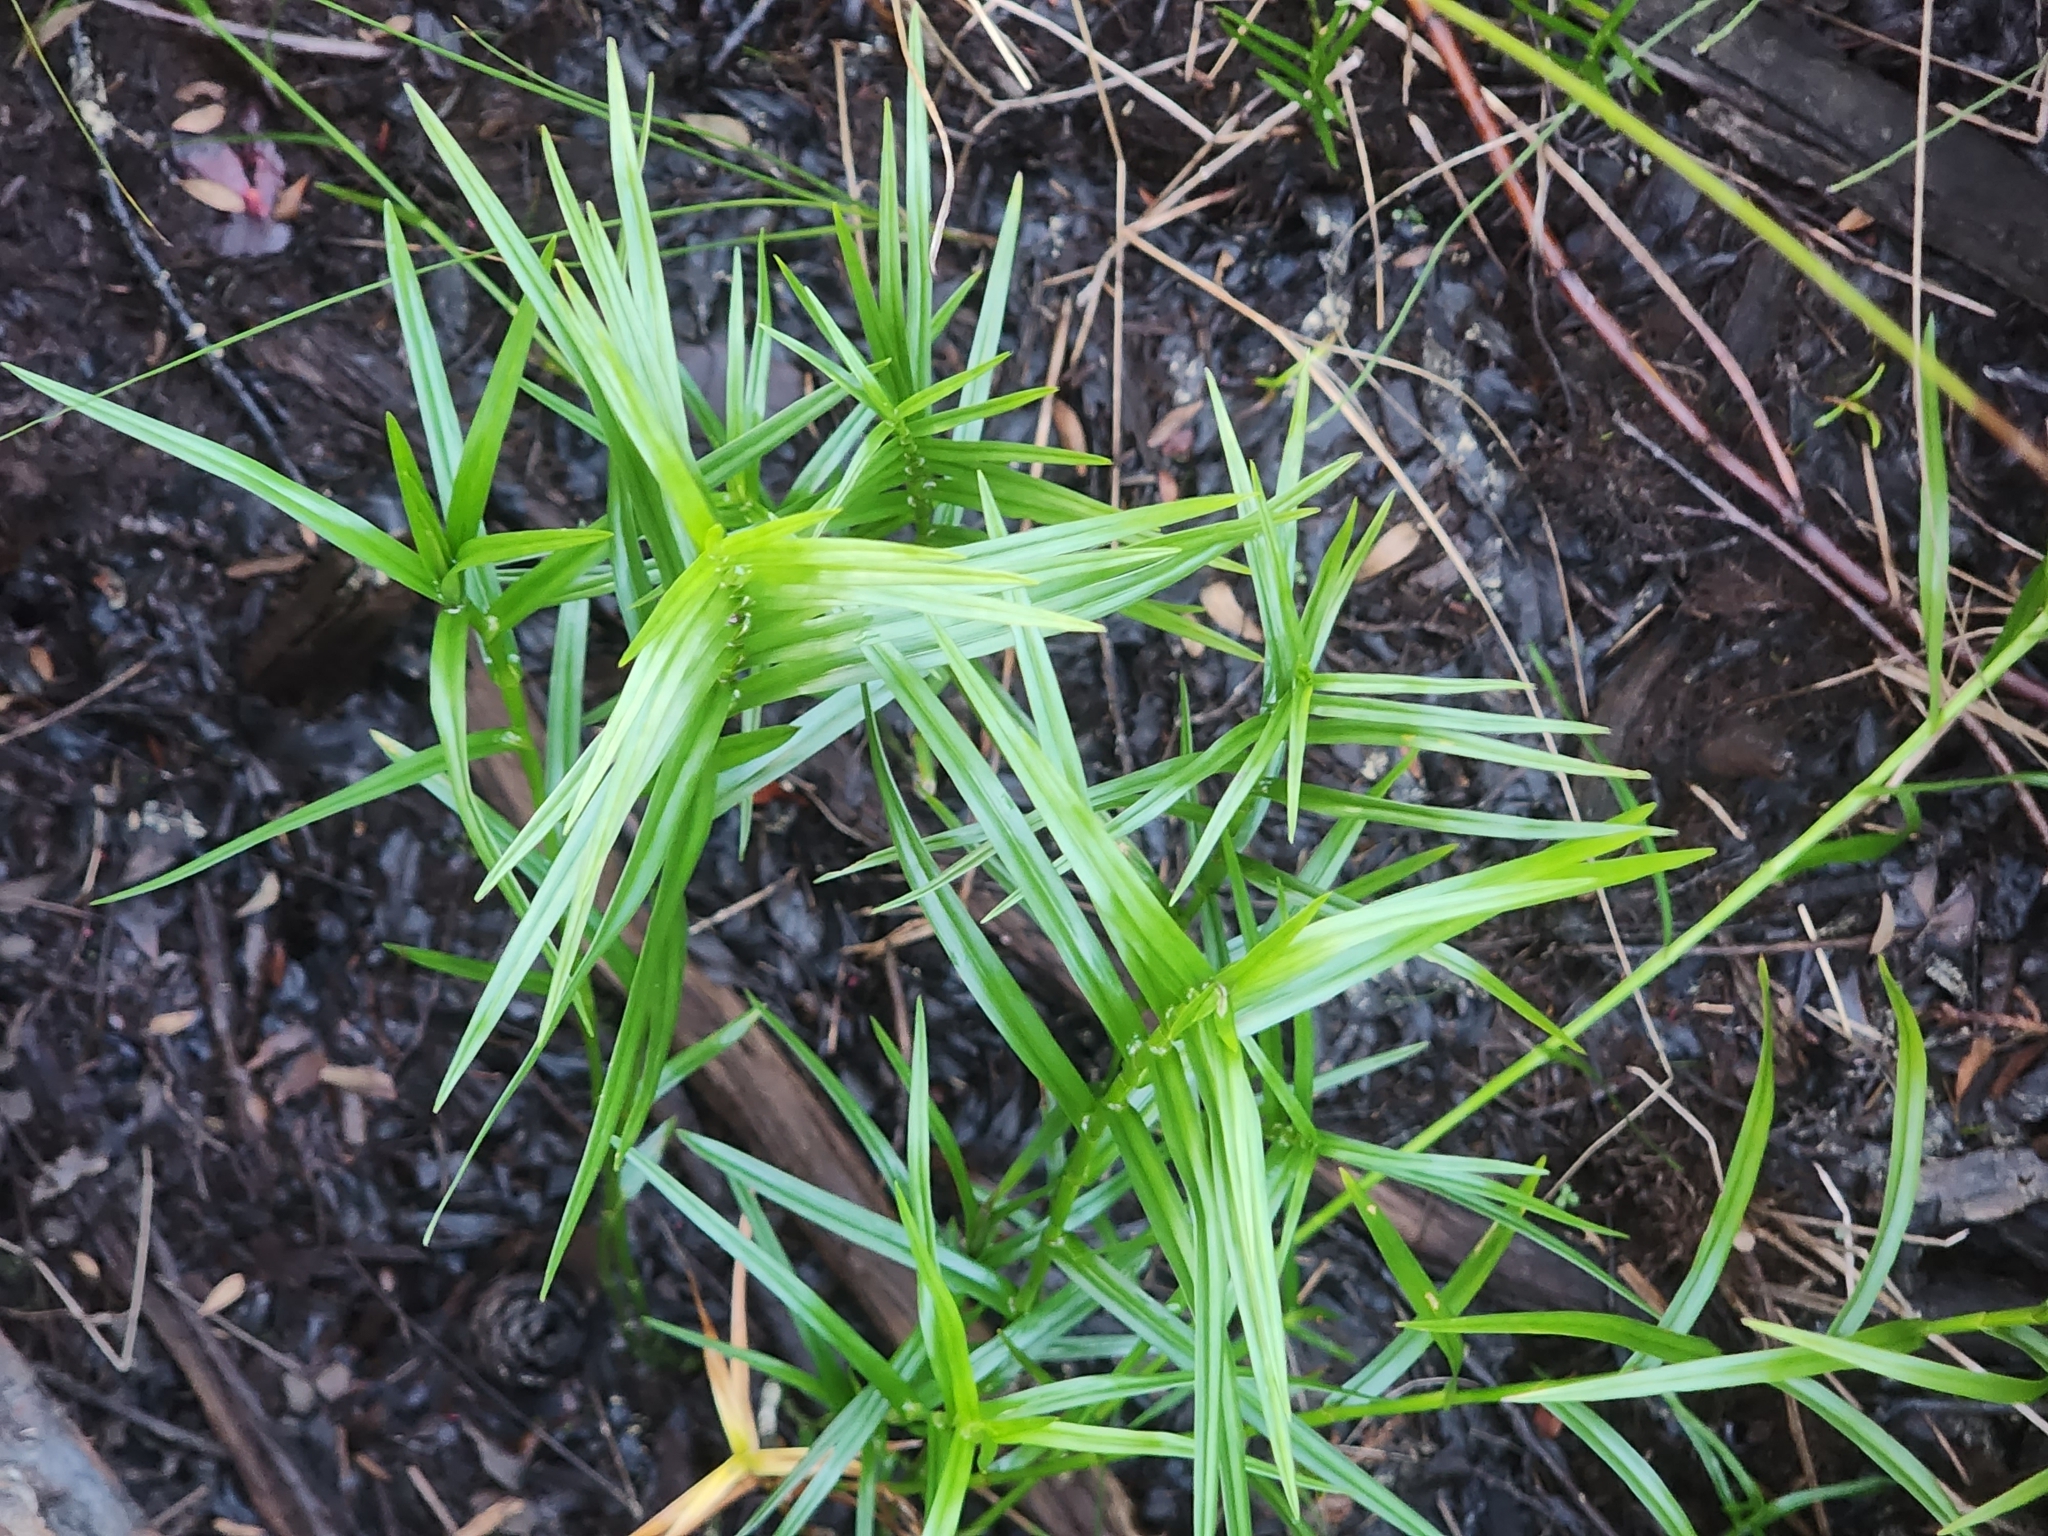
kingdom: Plantae
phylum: Tracheophyta
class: Liliopsida
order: Poales
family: Cyperaceae
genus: Dulichium
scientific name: Dulichium arundinaceum
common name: Three-way sedge
